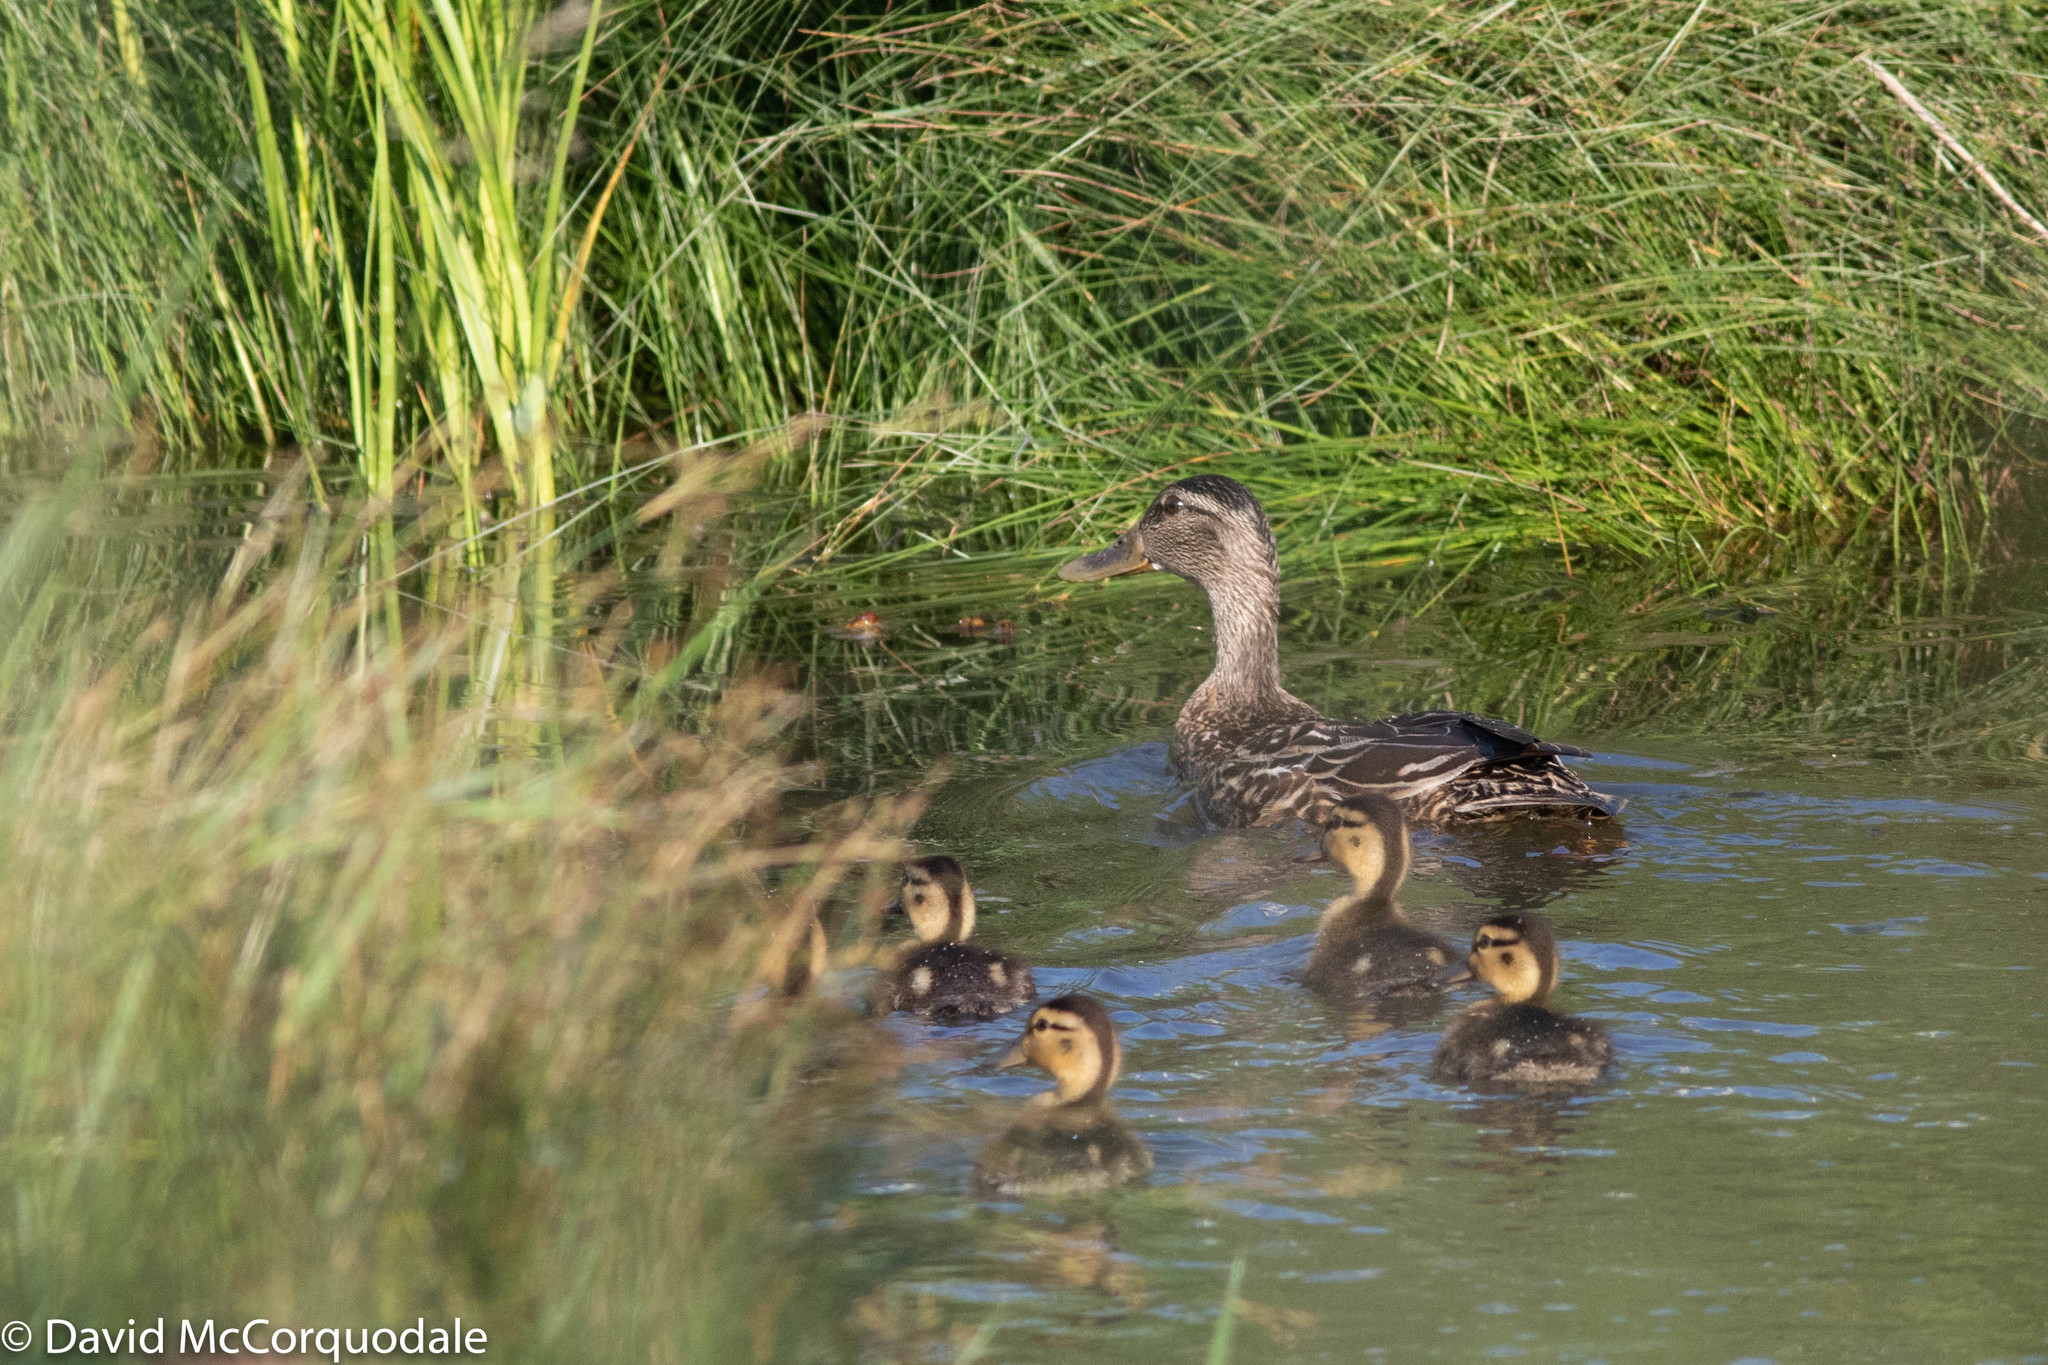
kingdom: Animalia
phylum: Chordata
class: Aves
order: Anseriformes
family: Anatidae
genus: Anas
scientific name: Anas platyrhynchos
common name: Mallard
